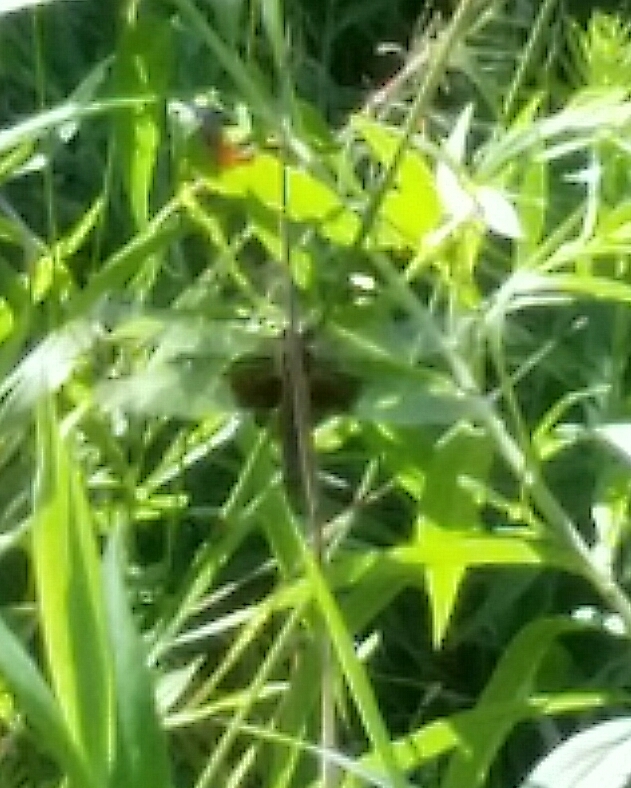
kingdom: Animalia
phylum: Arthropoda
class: Insecta
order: Odonata
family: Libellulidae
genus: Libellula
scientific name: Libellula luctuosa
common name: Widow skimmer
